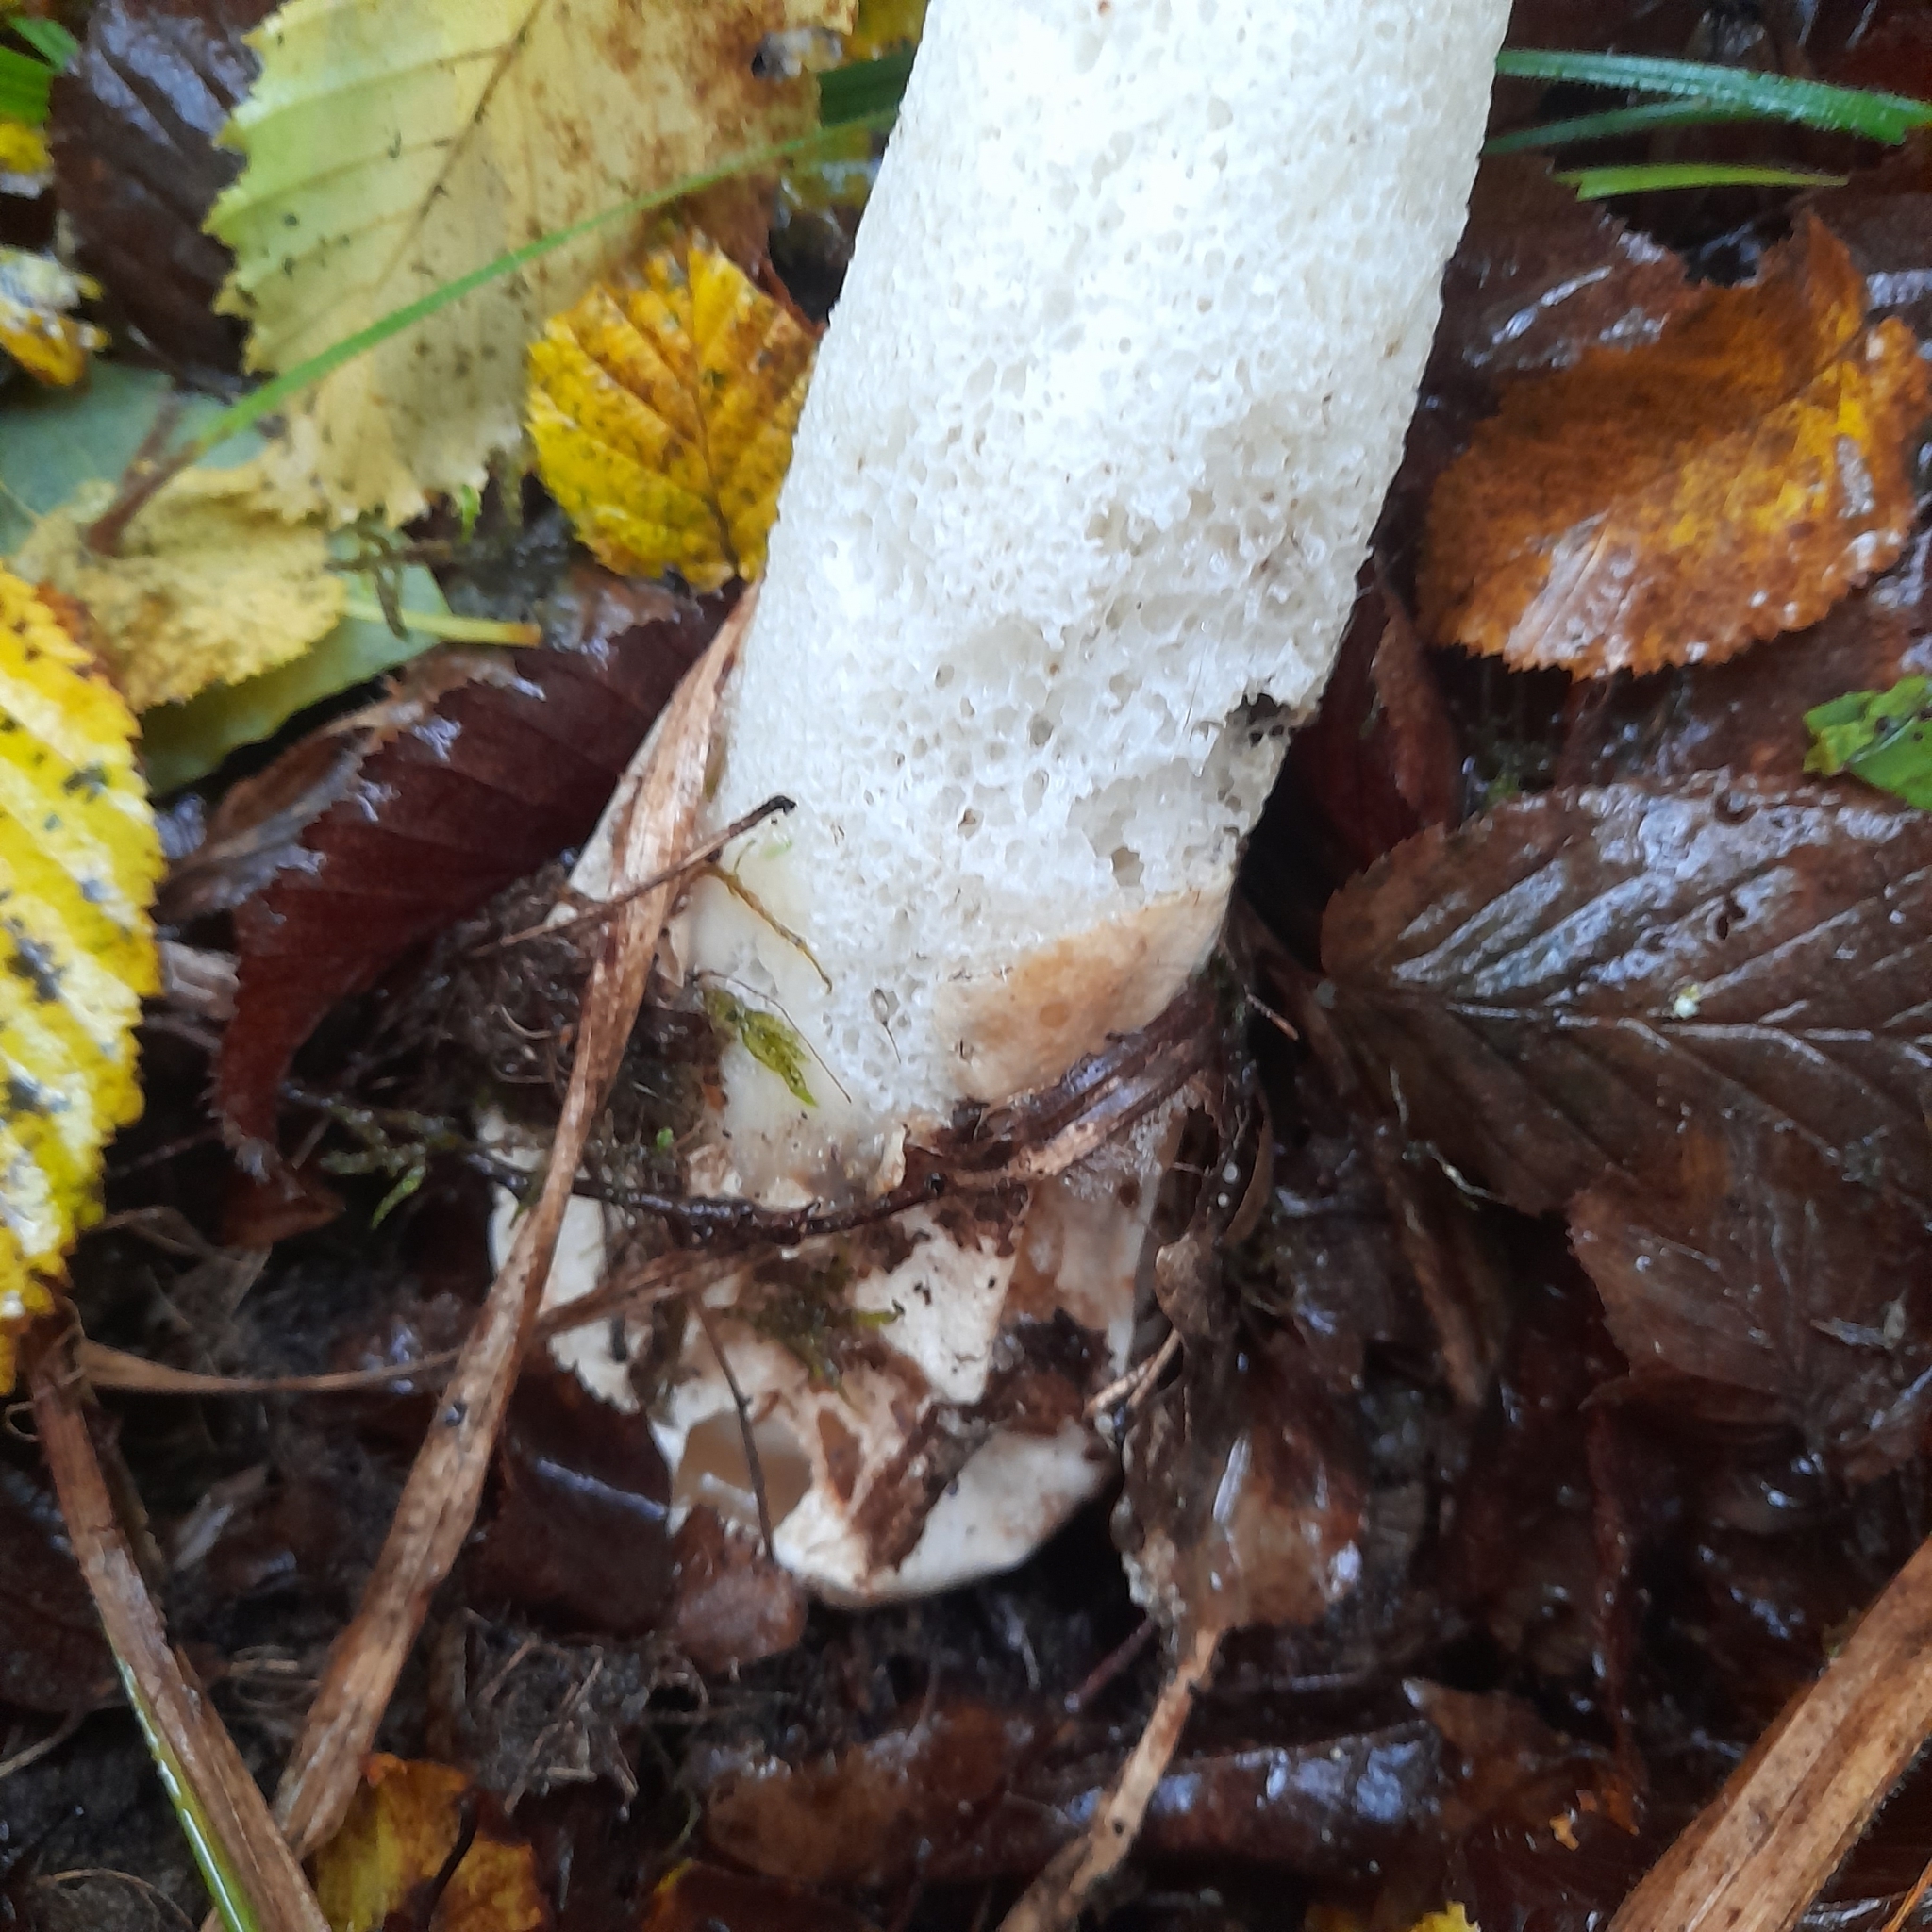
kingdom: Fungi
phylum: Basidiomycota
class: Agaricomycetes
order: Phallales
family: Phallaceae
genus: Phallus
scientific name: Phallus impudicus
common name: Common stinkhorn
